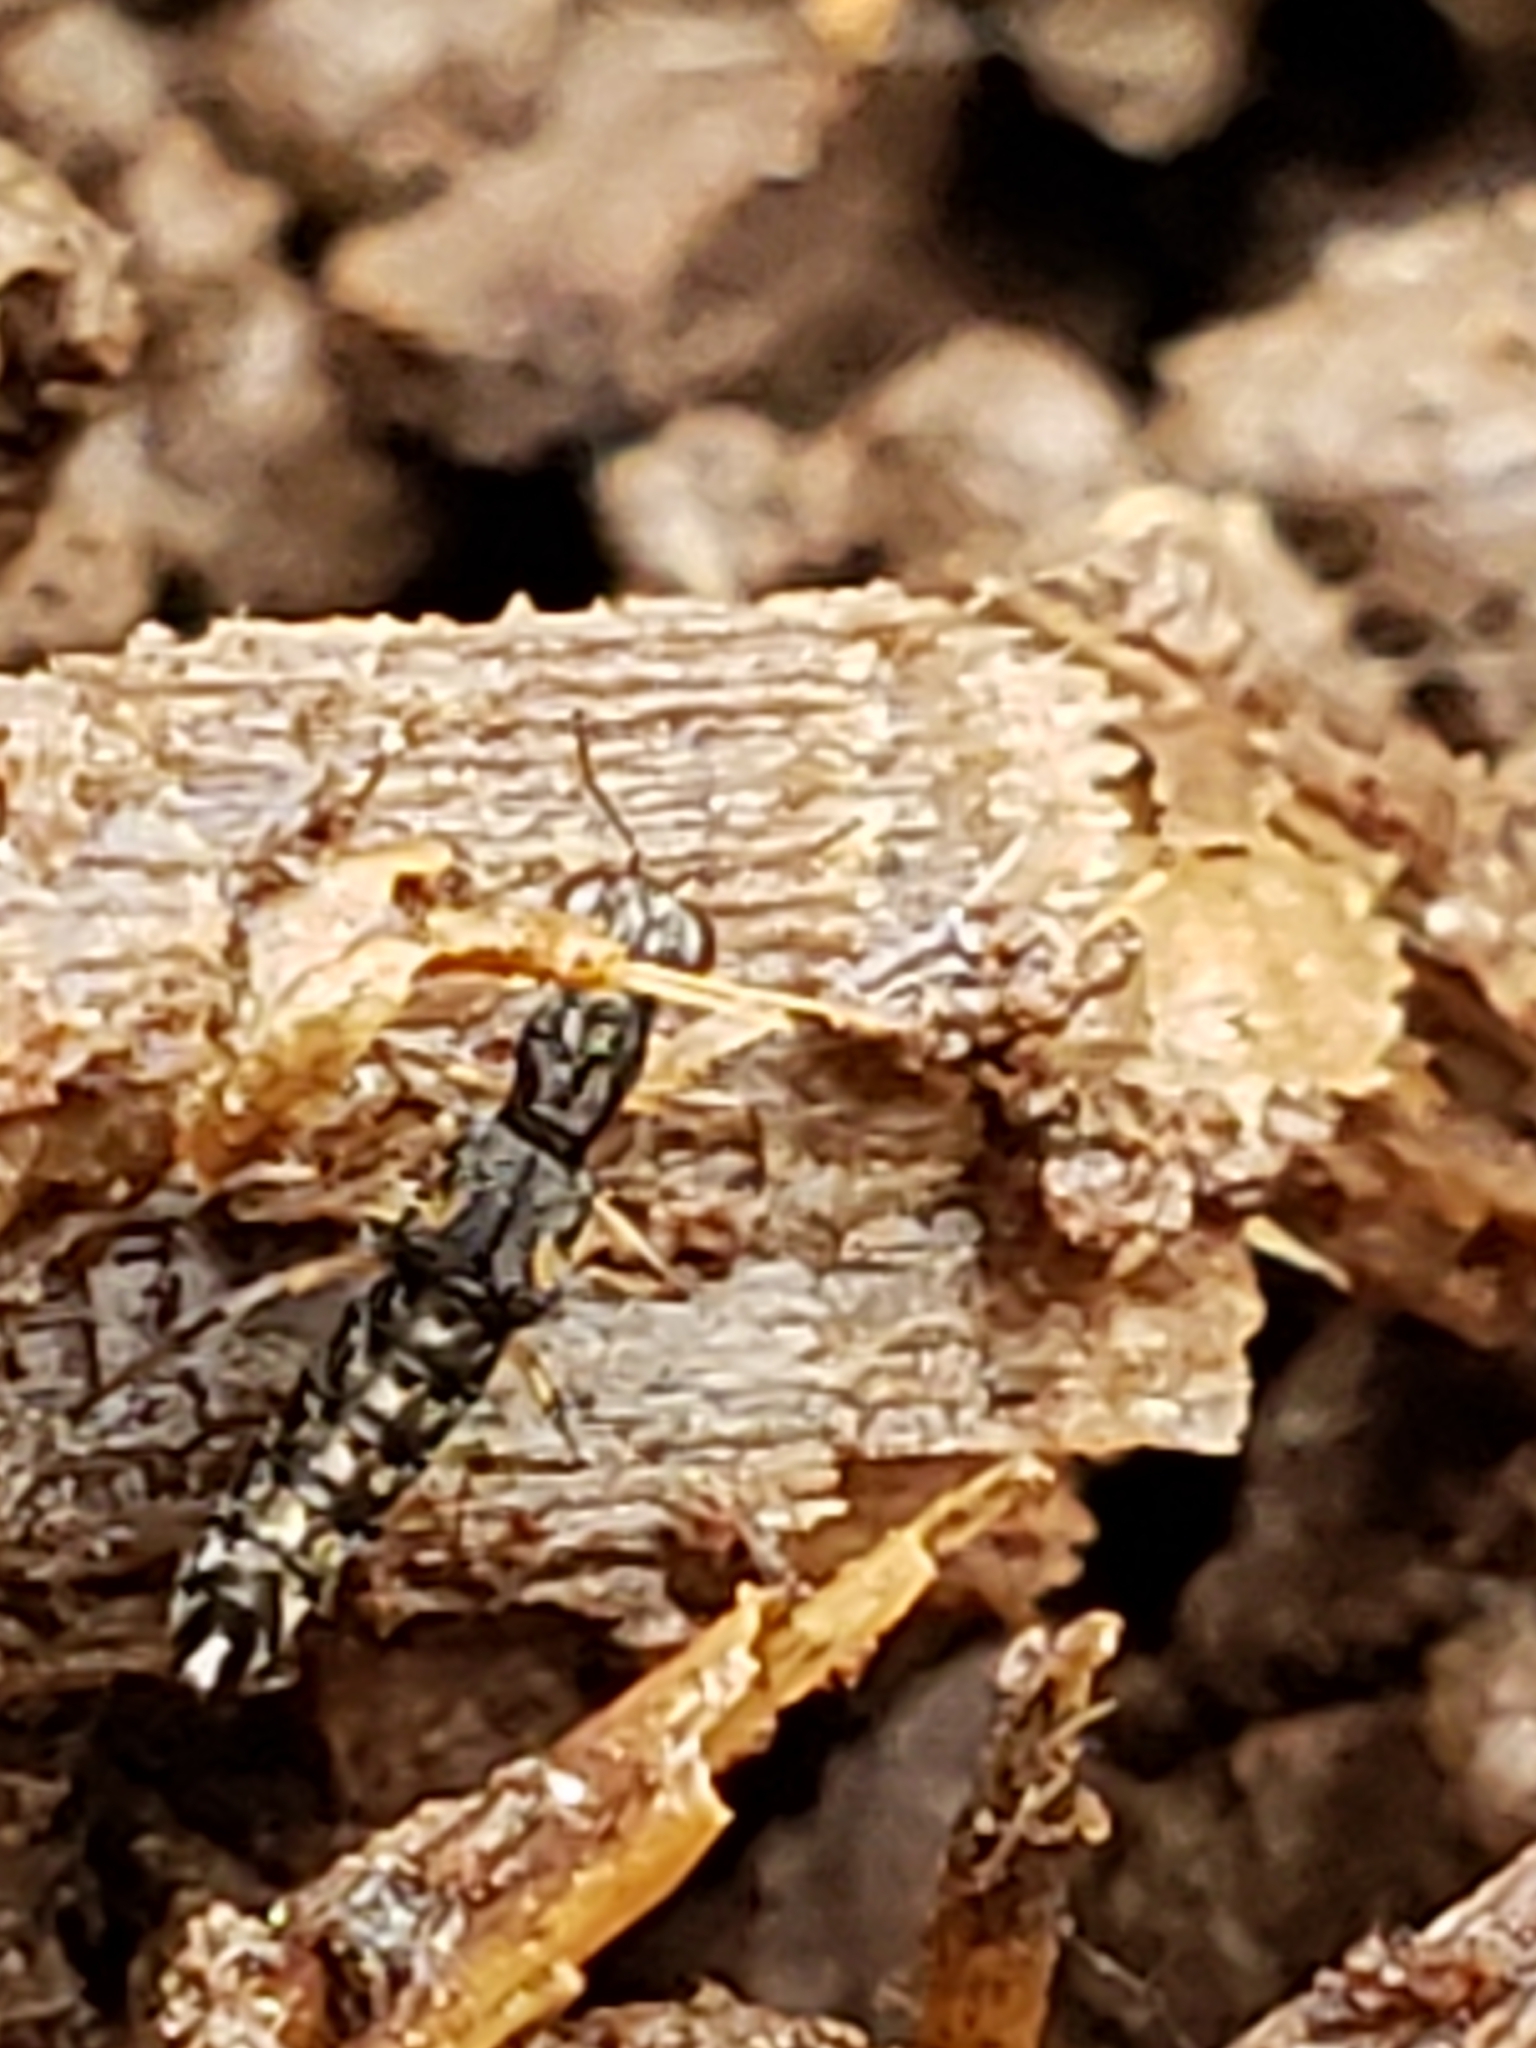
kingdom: Animalia
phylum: Arthropoda
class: Insecta
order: Coleoptera
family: Staphylinidae
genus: Stenus
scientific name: Stenus colon
